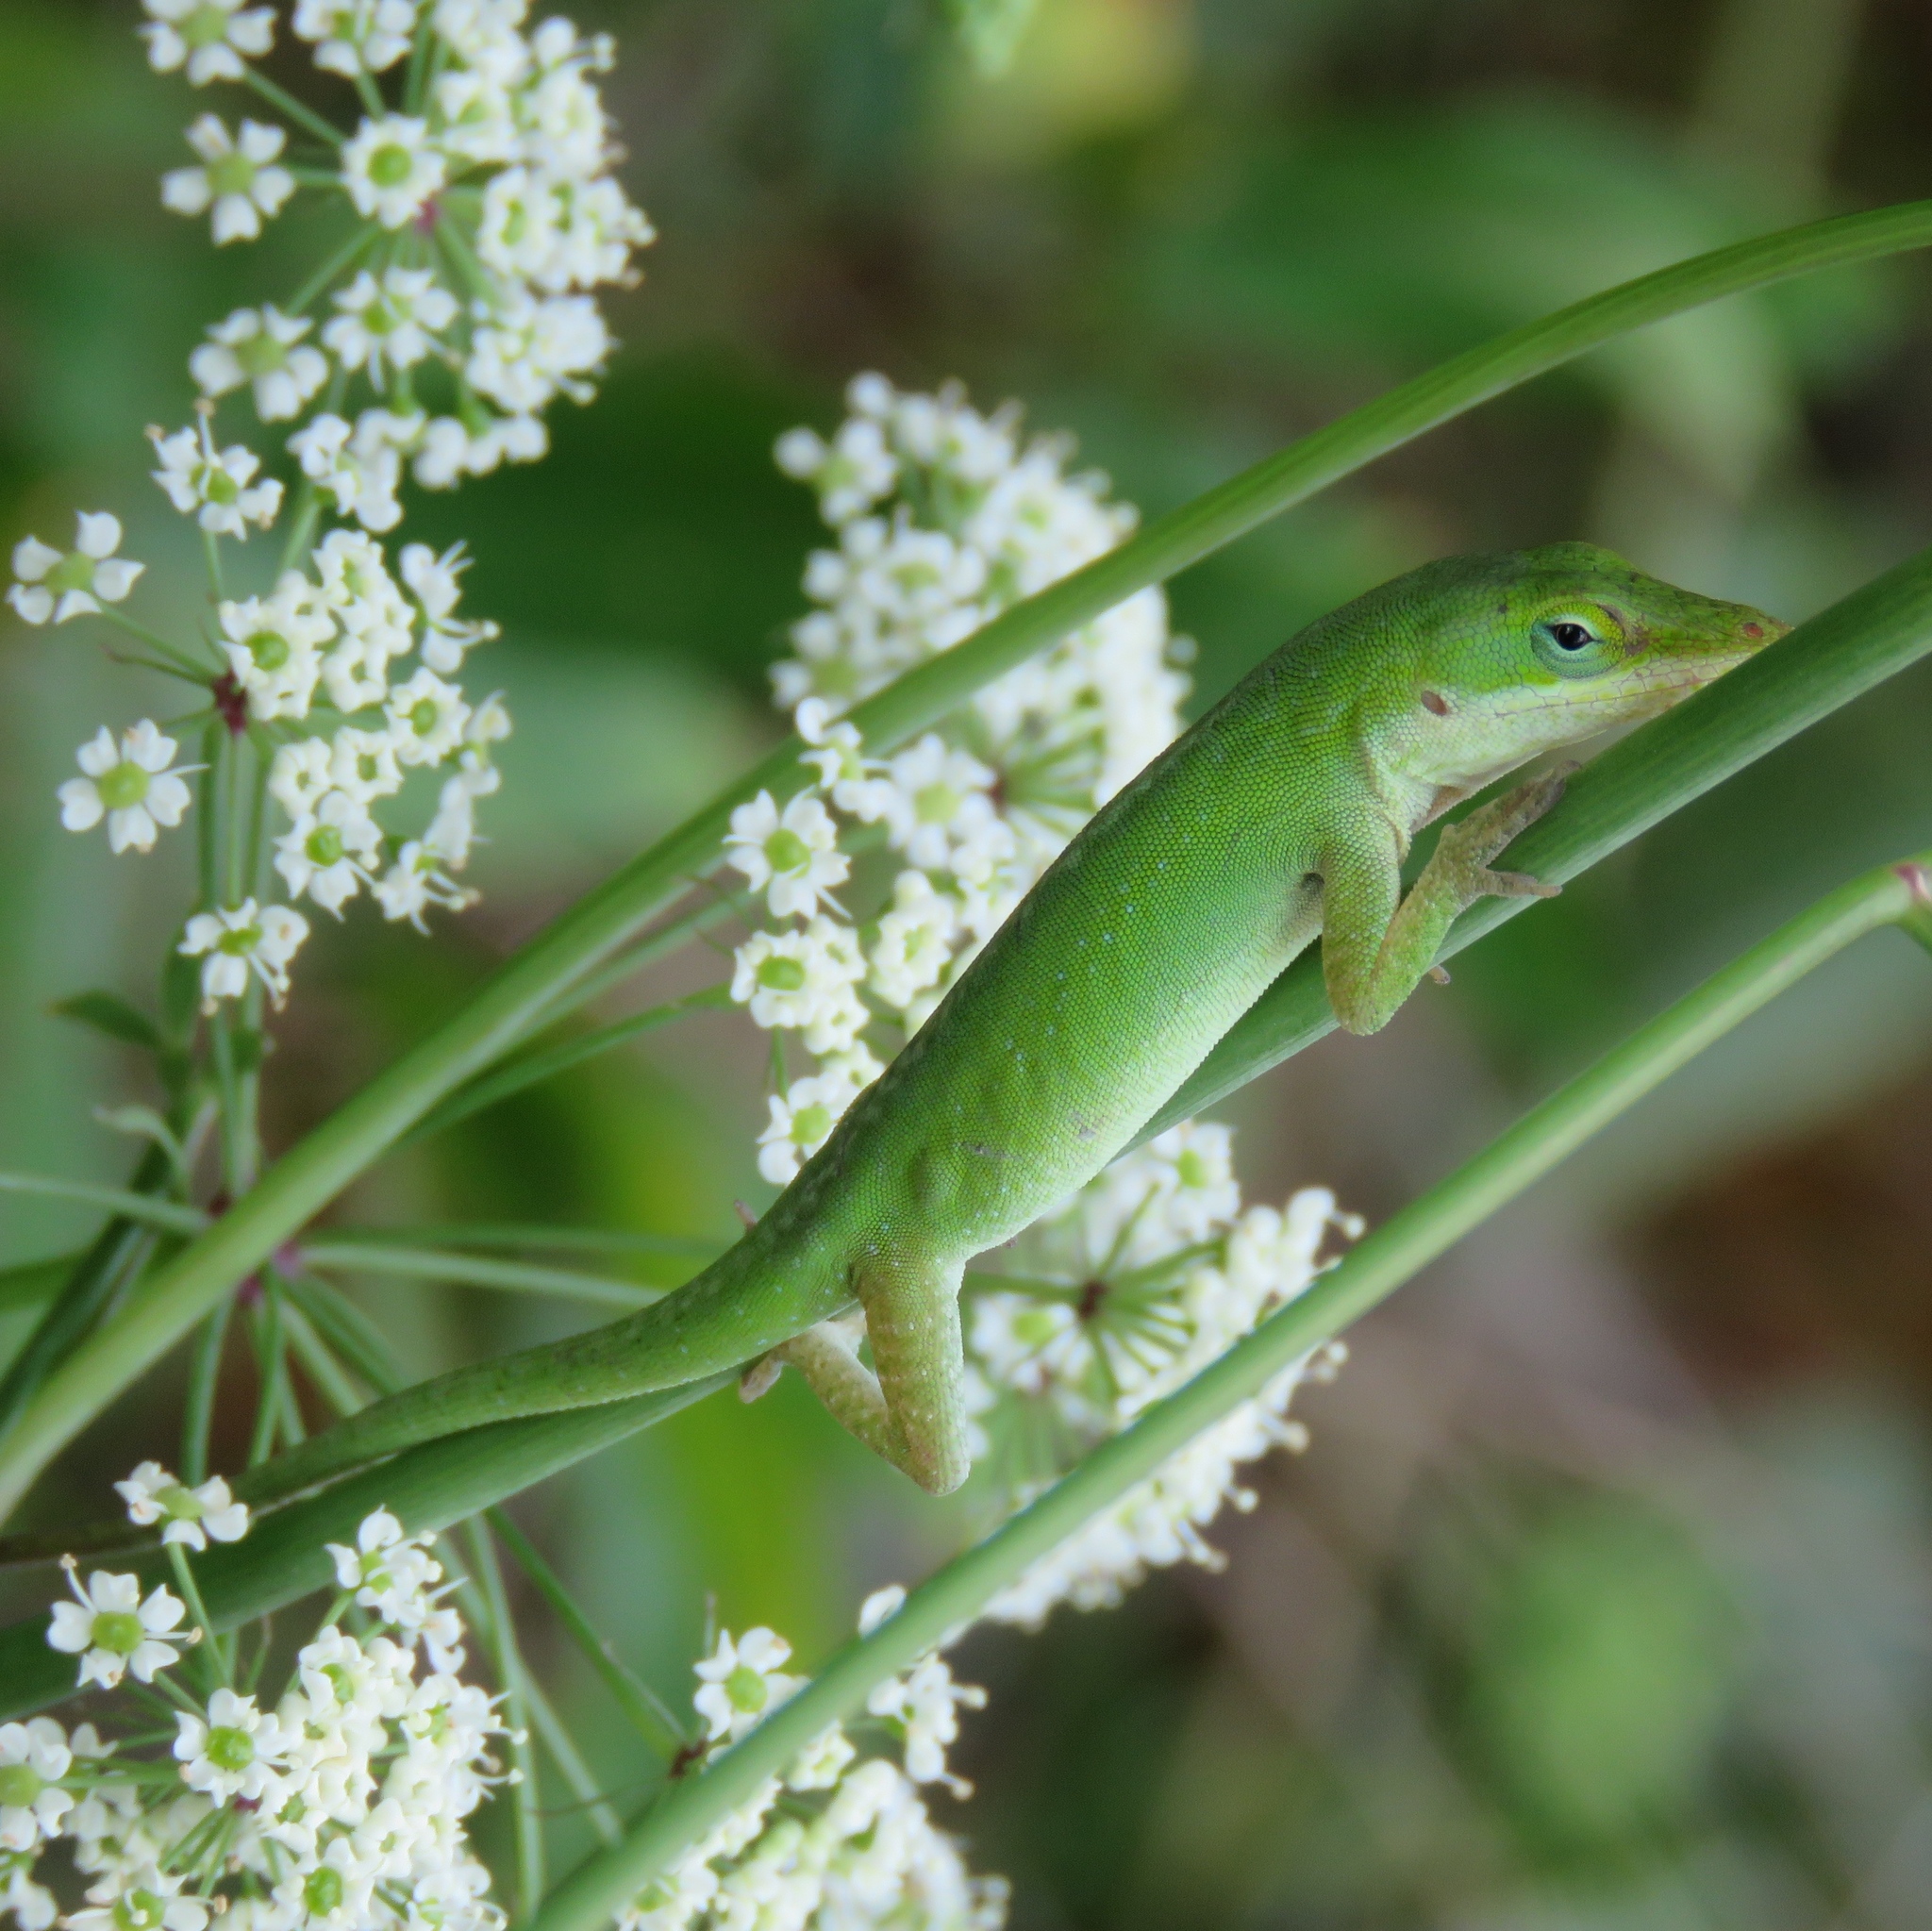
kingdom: Animalia
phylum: Chordata
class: Squamata
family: Dactyloidae
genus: Anolis
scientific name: Anolis carolinensis
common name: Green anole
